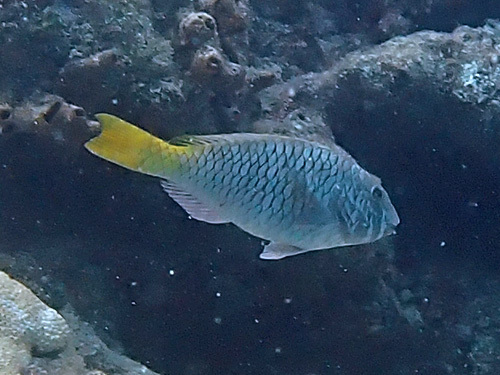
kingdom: Animalia
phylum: Chordata
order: Perciformes
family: Scaridae
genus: Sparisoma
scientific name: Sparisoma rubripinne
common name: Redfin parrotfish
